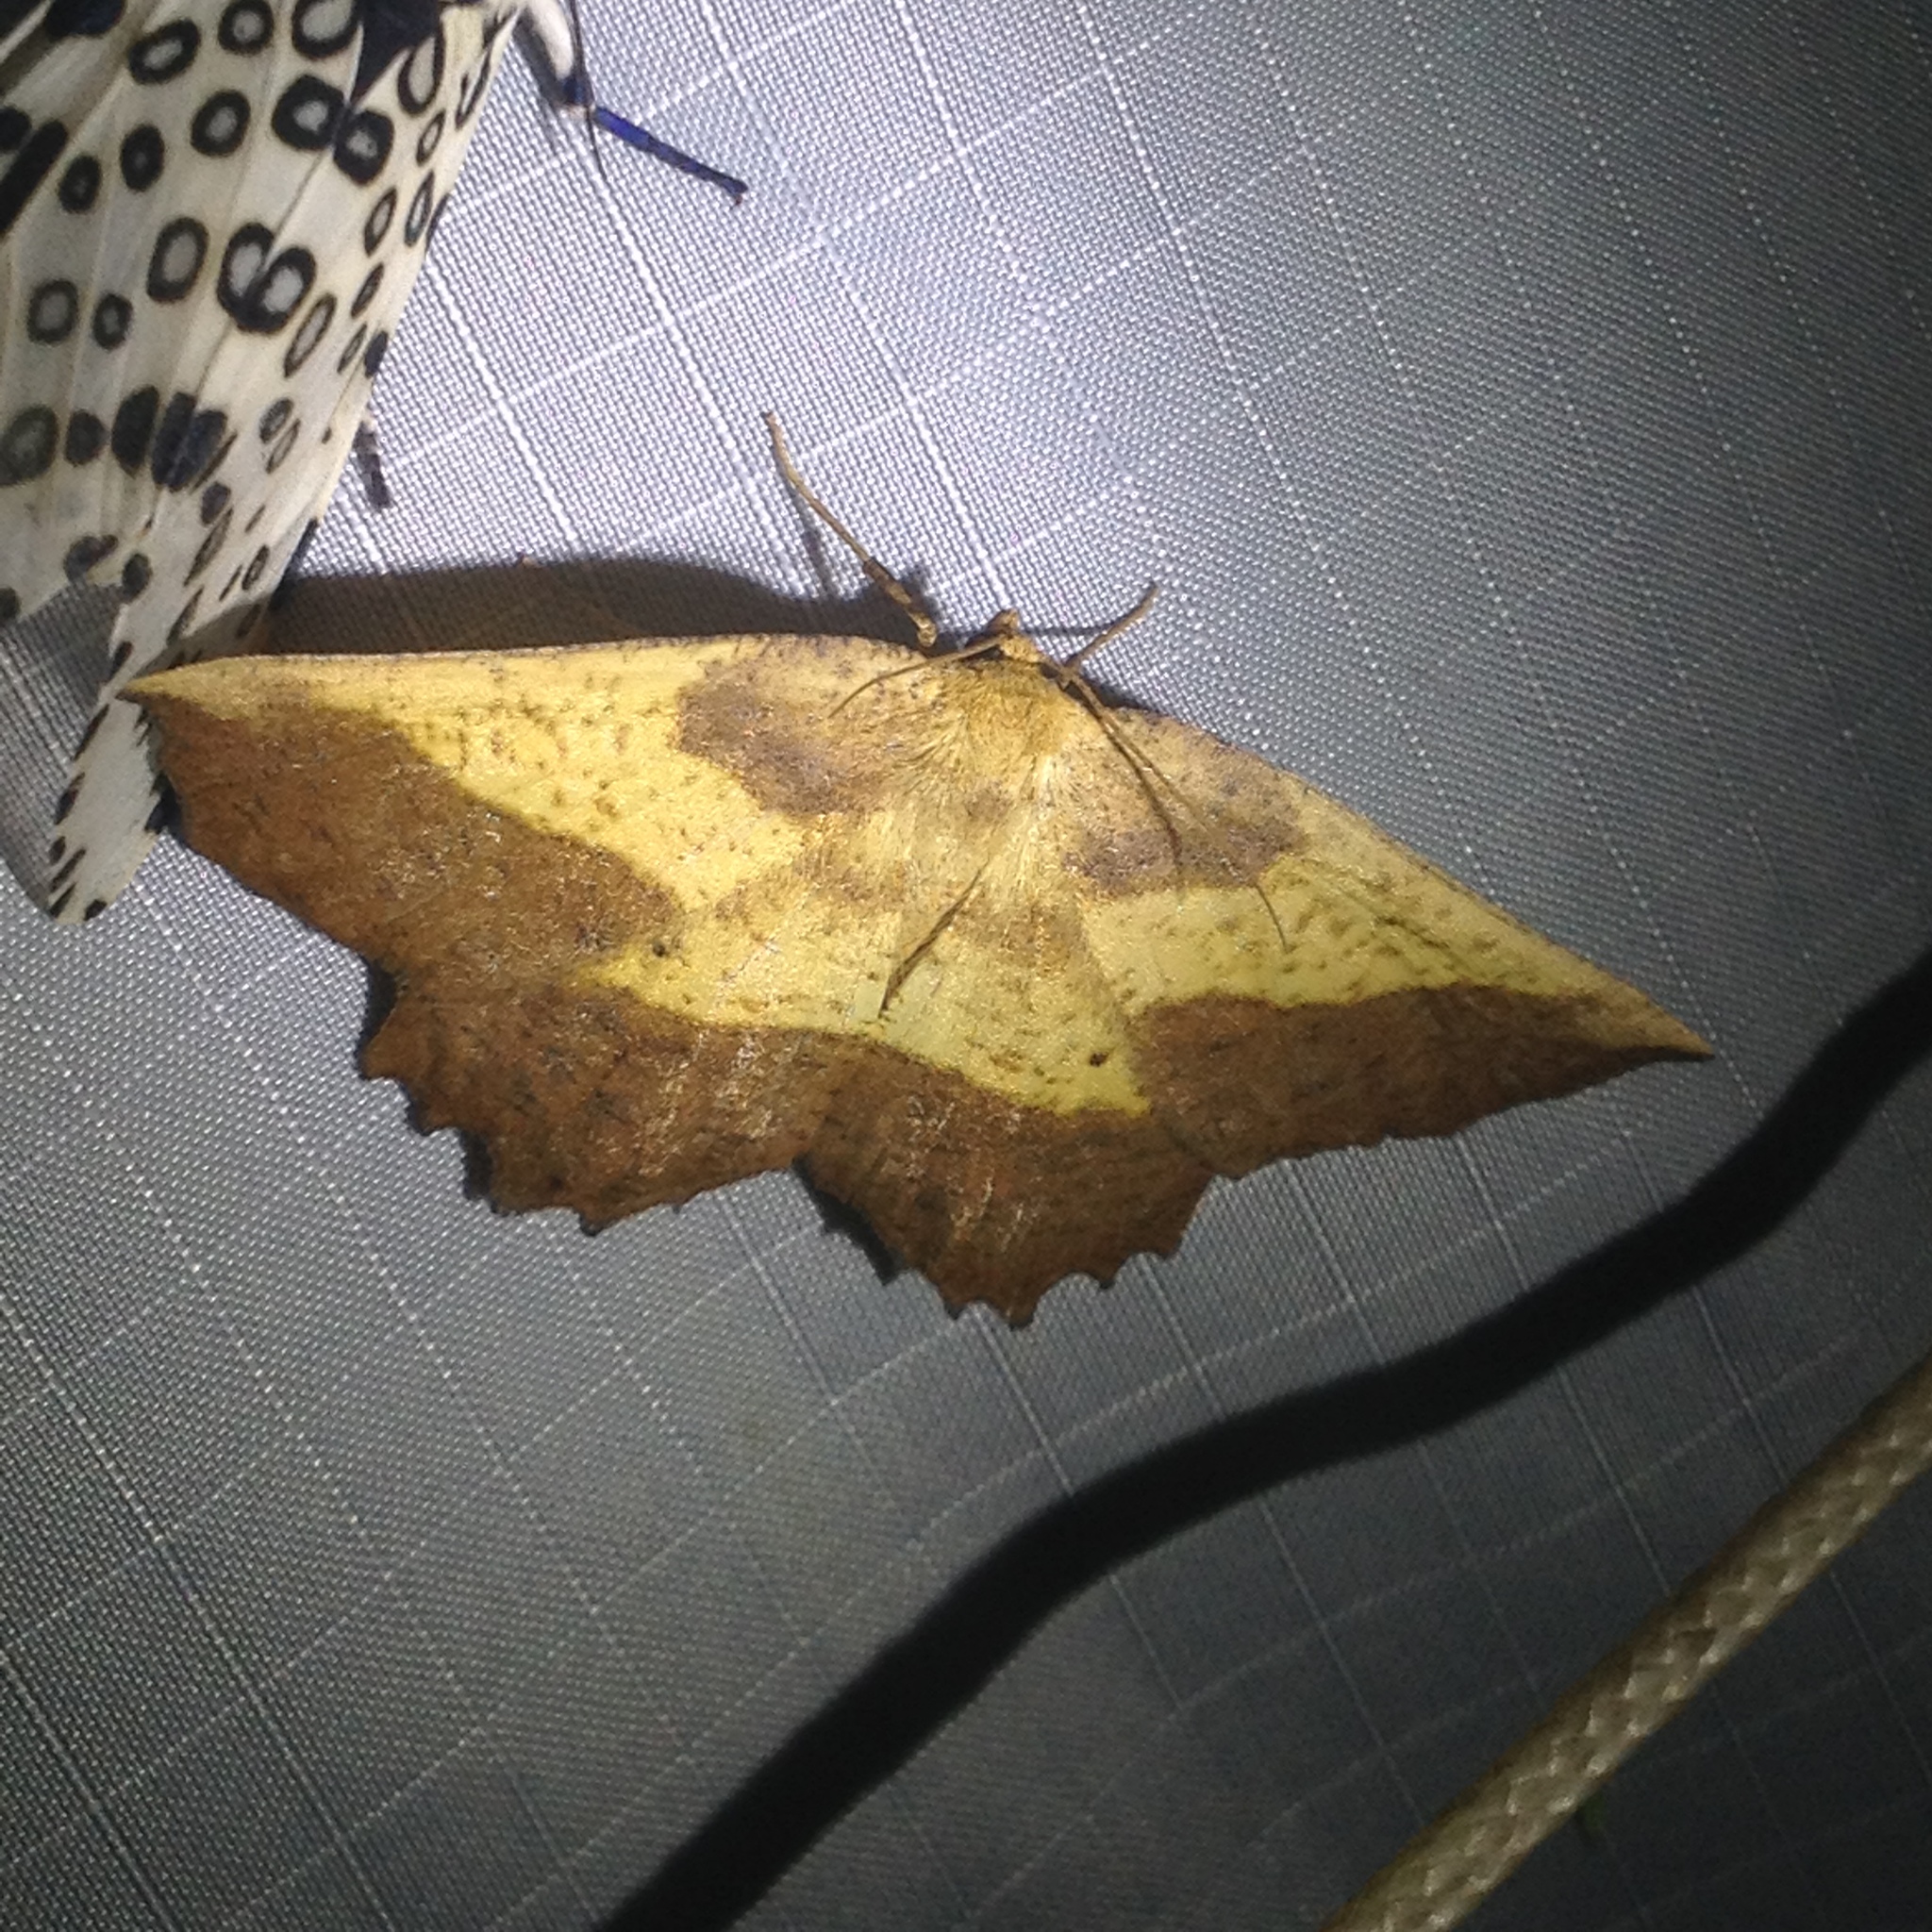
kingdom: Animalia
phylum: Arthropoda
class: Insecta
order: Lepidoptera
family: Geometridae
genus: Euchlaena
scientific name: Euchlaena serrata
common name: Saw wing
